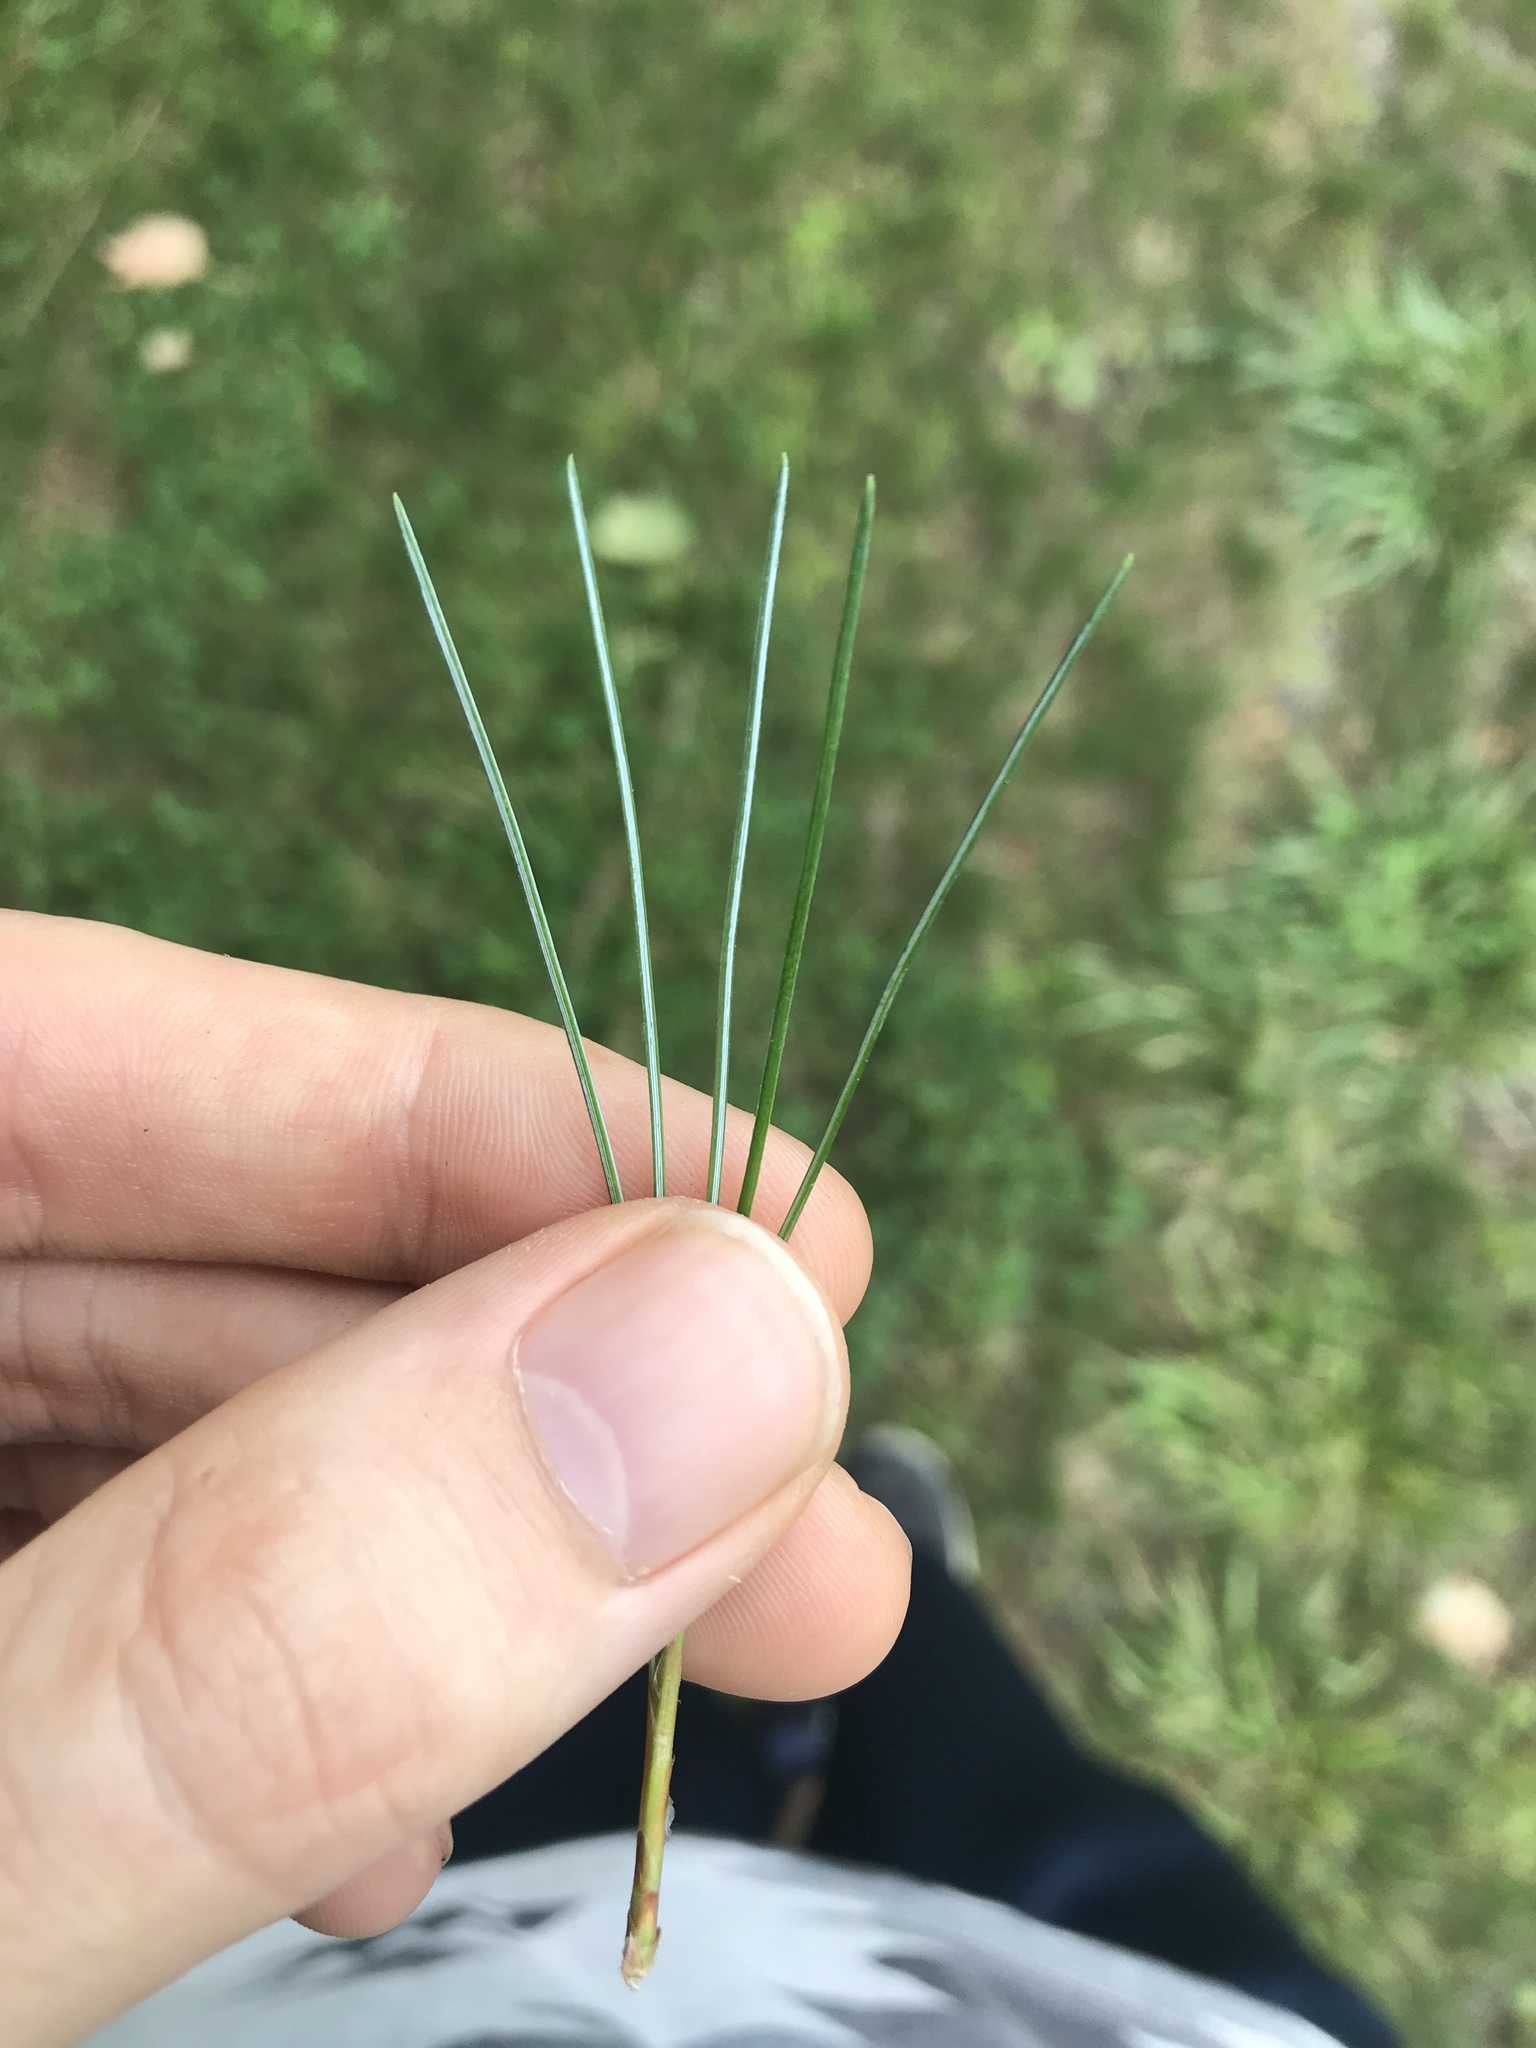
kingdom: Plantae
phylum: Tracheophyta
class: Pinopsida
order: Pinales
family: Pinaceae
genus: Pinus
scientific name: Pinus strobus
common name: Weymouth pine
